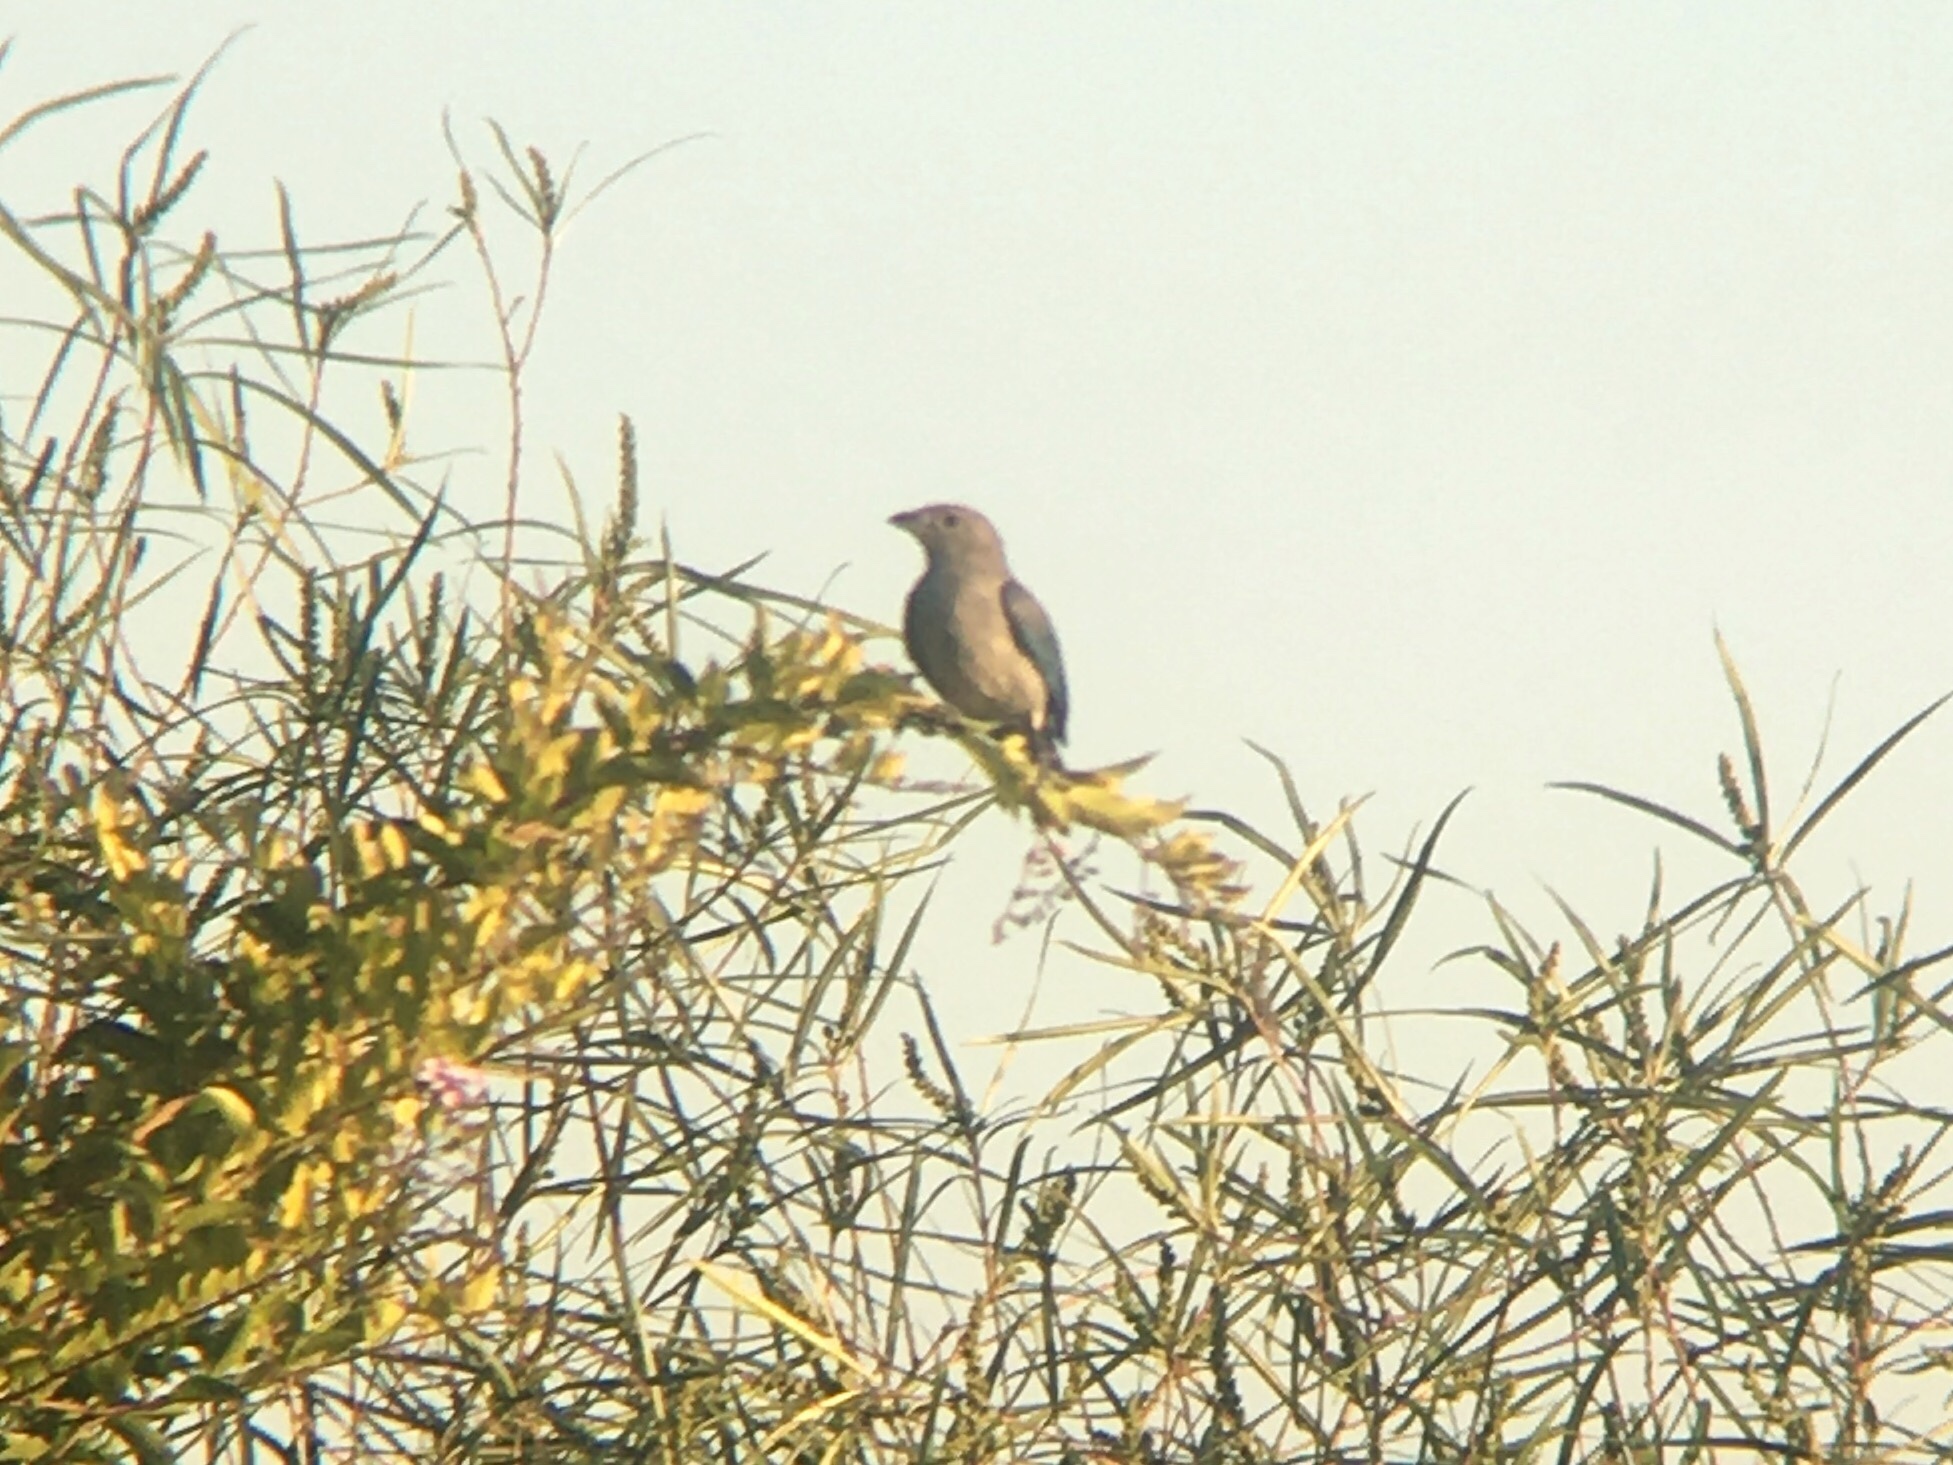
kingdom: Animalia
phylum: Chordata
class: Aves
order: Passeriformes
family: Thraupidae
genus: Thraupis
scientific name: Thraupis sayaca
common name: Sayaca tanager
